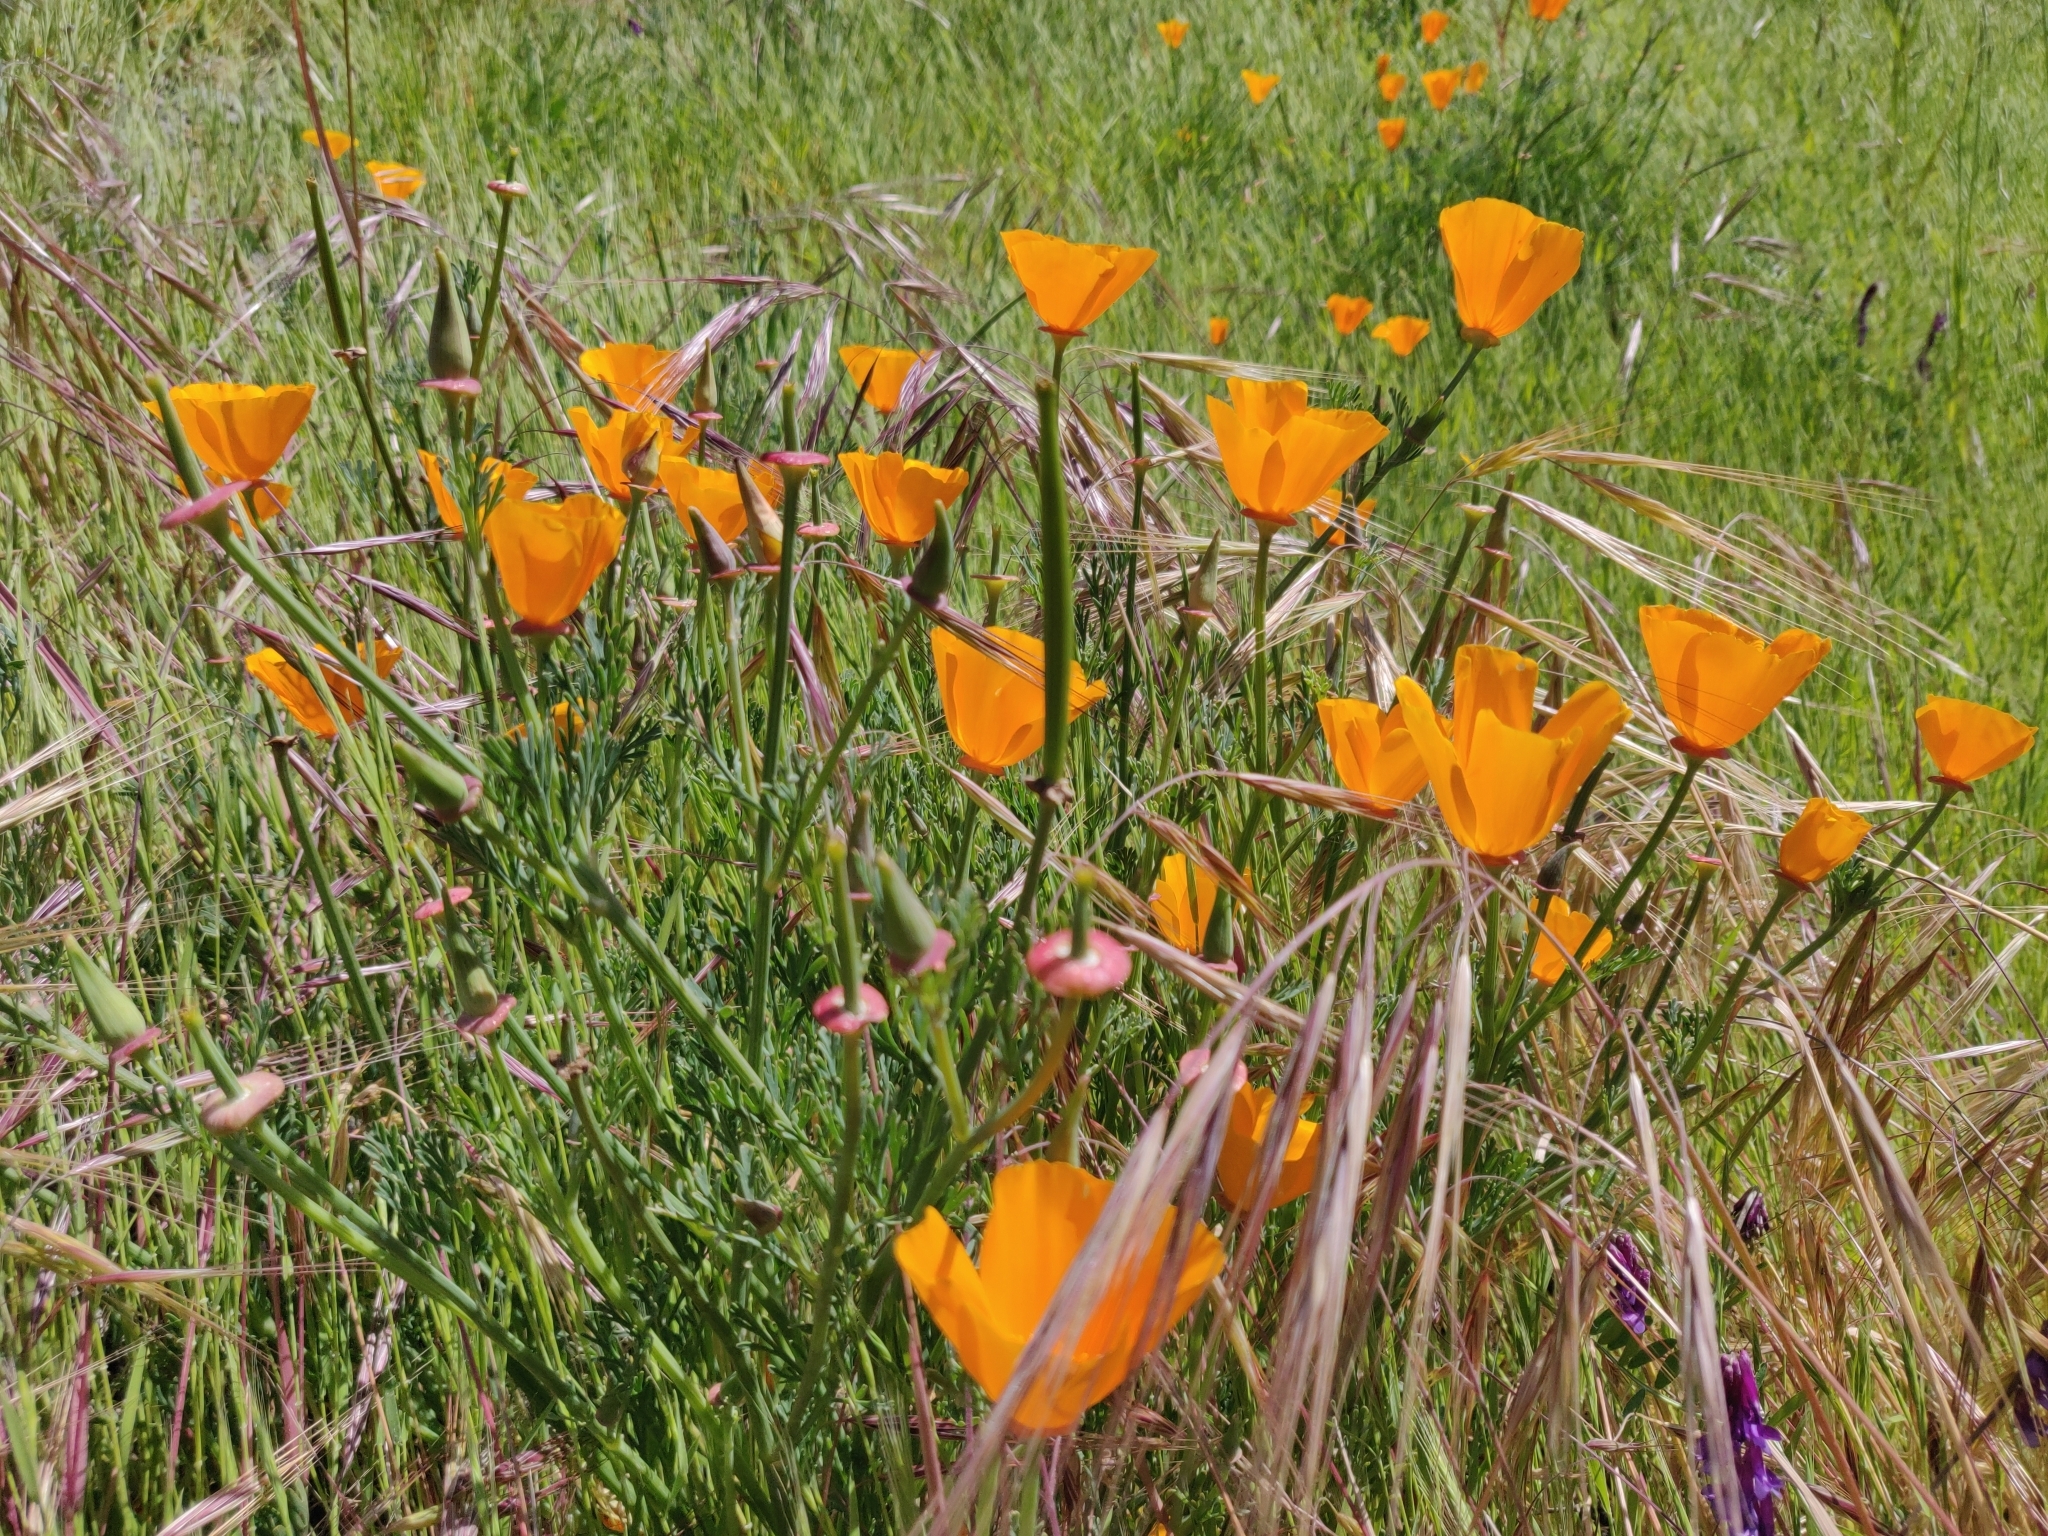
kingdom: Plantae
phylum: Tracheophyta
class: Magnoliopsida
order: Ranunculales
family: Papaveraceae
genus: Eschscholzia
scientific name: Eschscholzia californica
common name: California poppy
